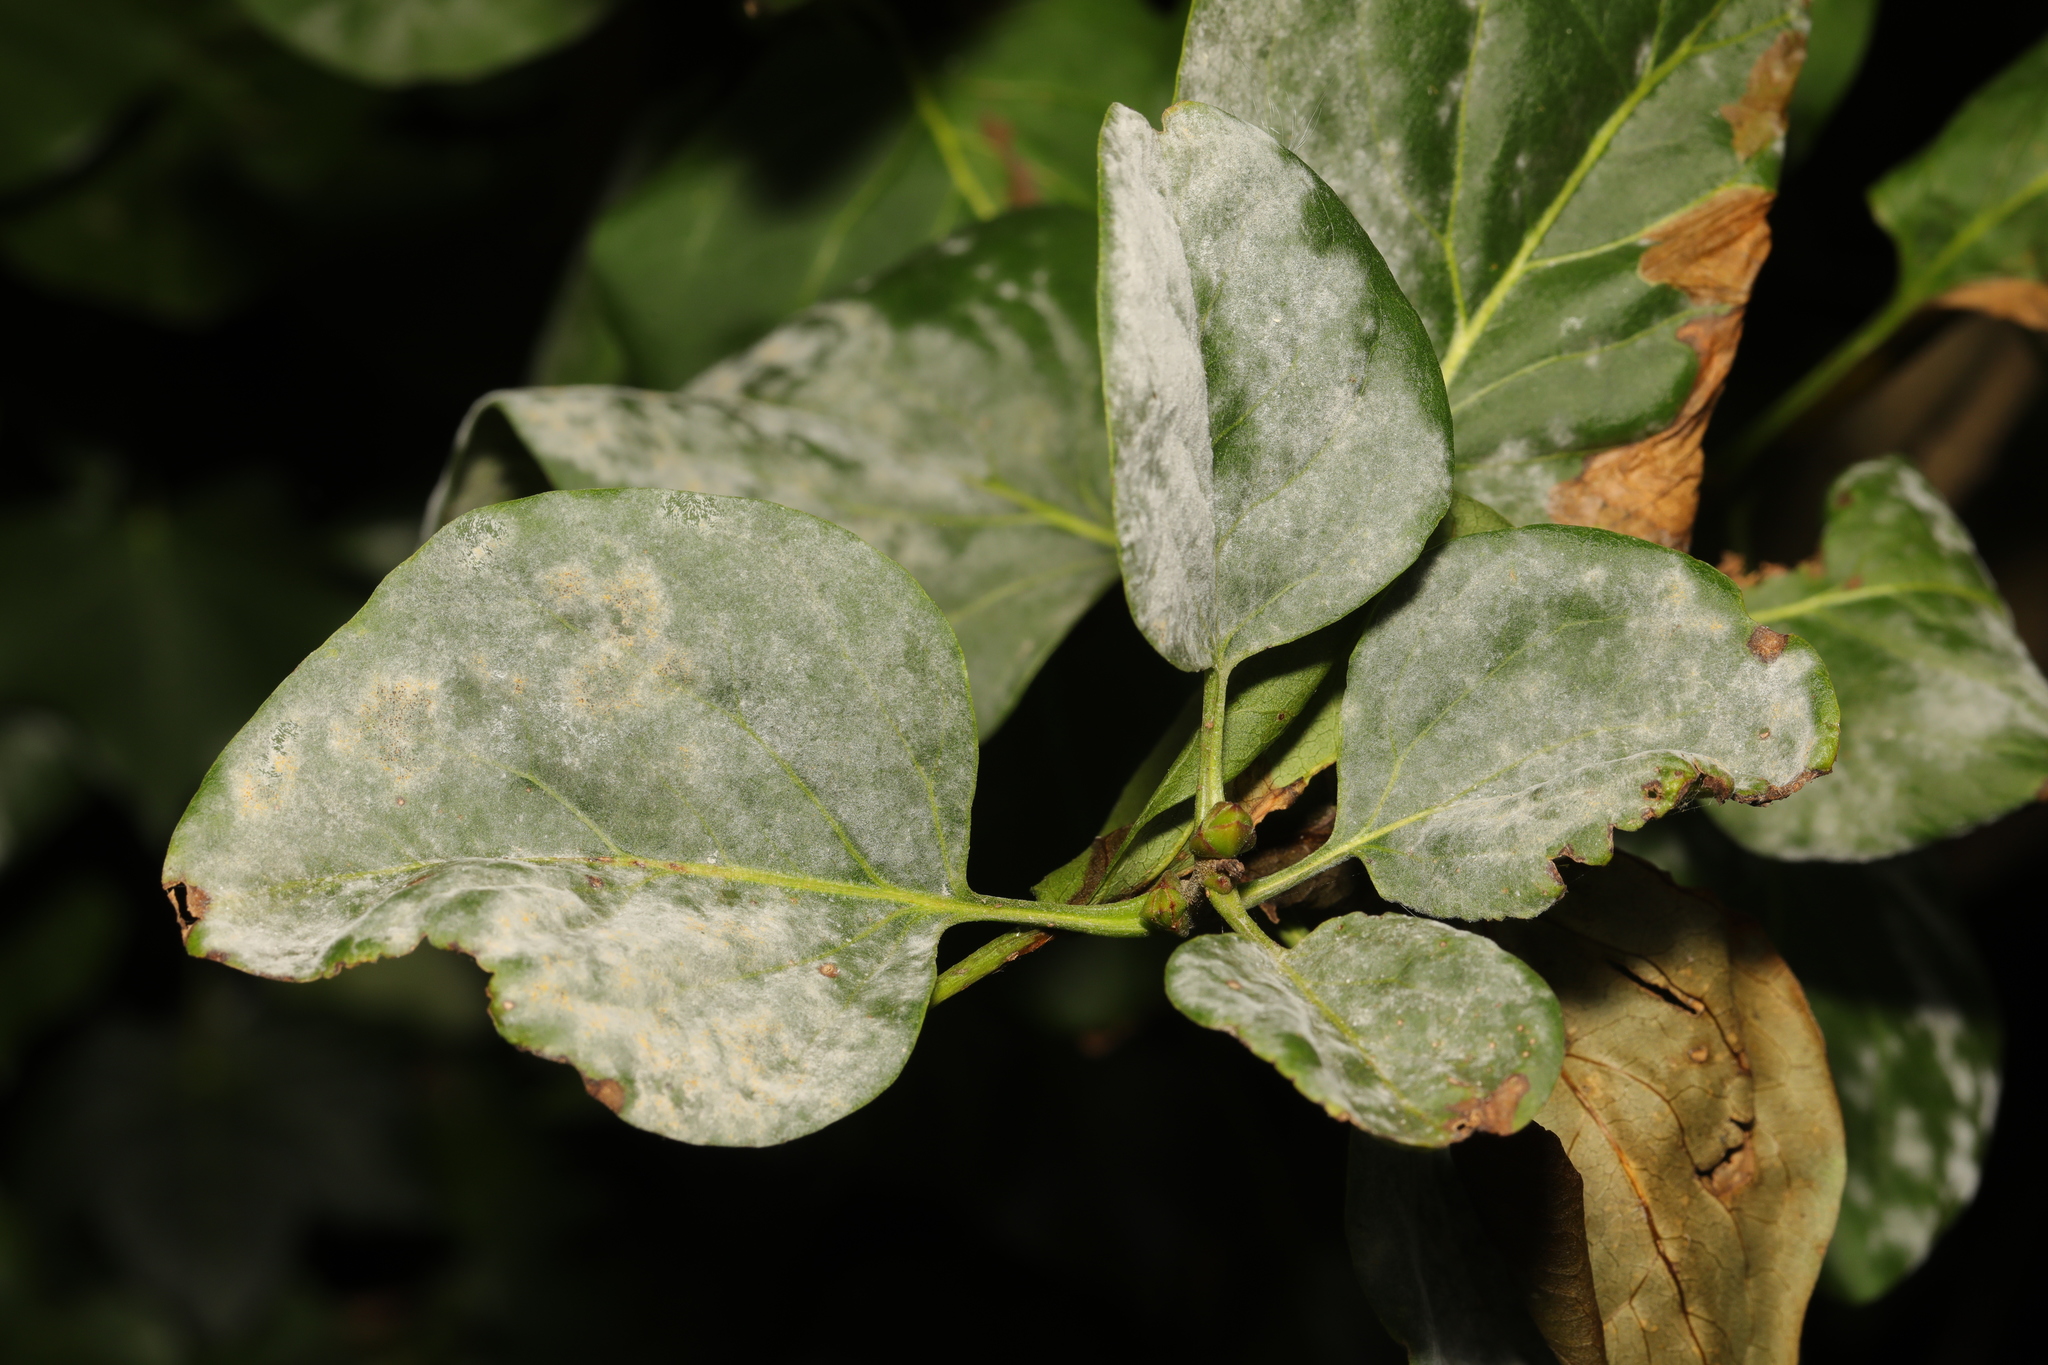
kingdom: Fungi
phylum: Ascomycota
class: Leotiomycetes
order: Helotiales
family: Erysiphaceae
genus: Erysiphe
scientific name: Erysiphe penicillata
